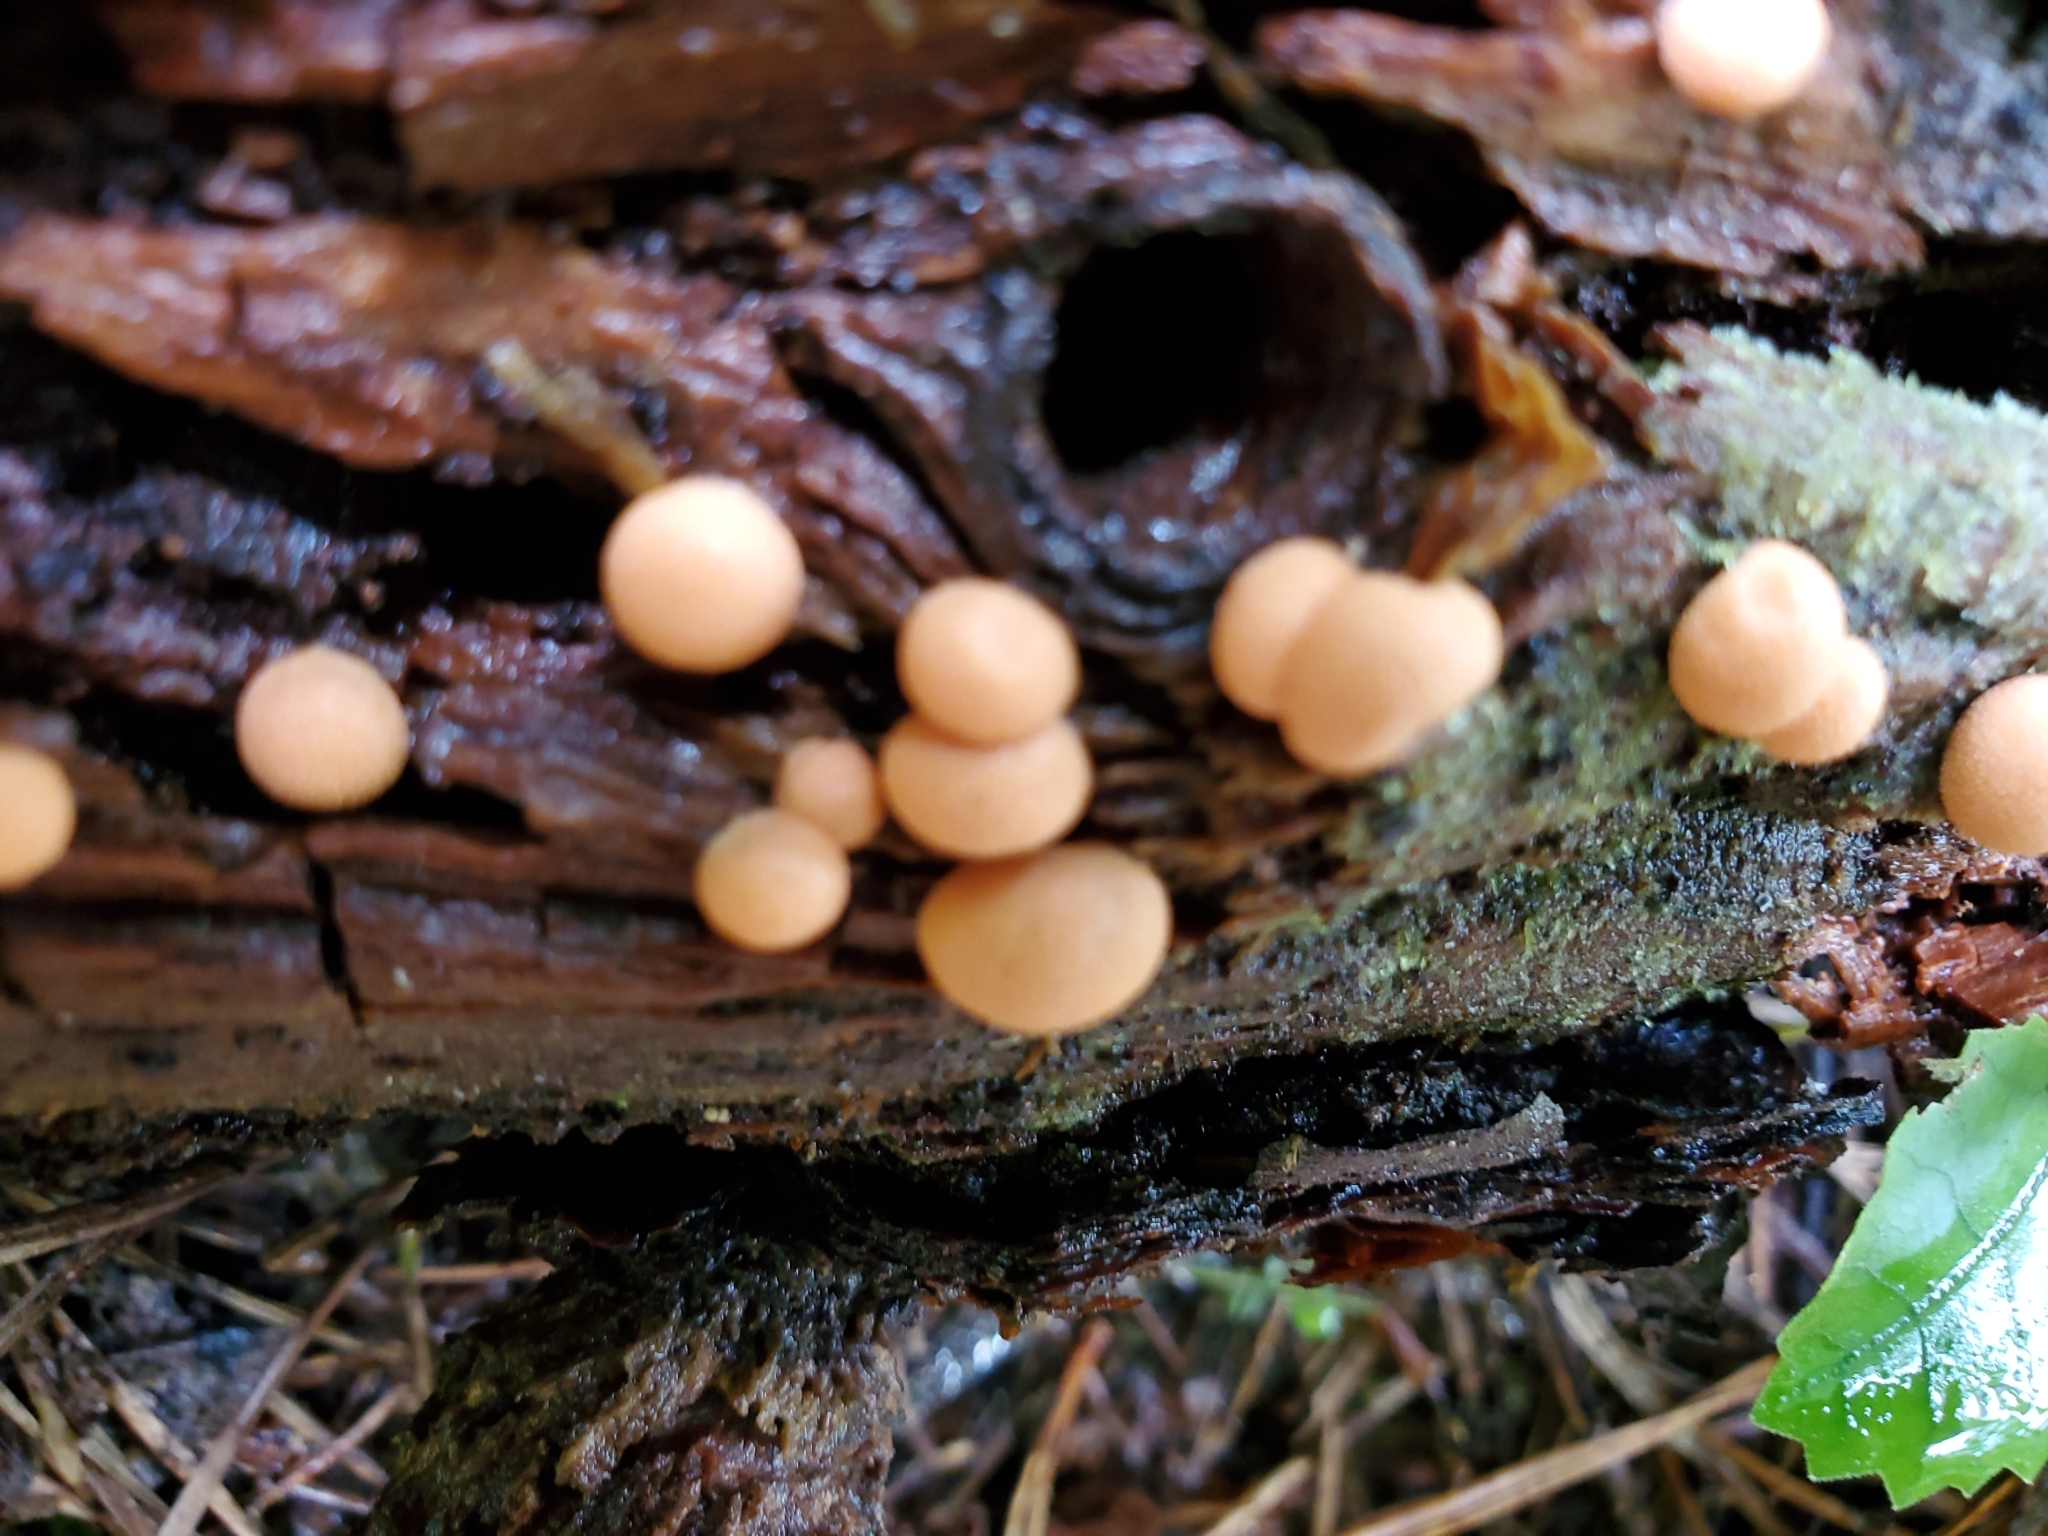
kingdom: Protozoa
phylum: Mycetozoa
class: Myxomycetes
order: Cribrariales
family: Tubiferaceae
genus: Lycogala
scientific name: Lycogala epidendrum
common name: Wolf's milk
